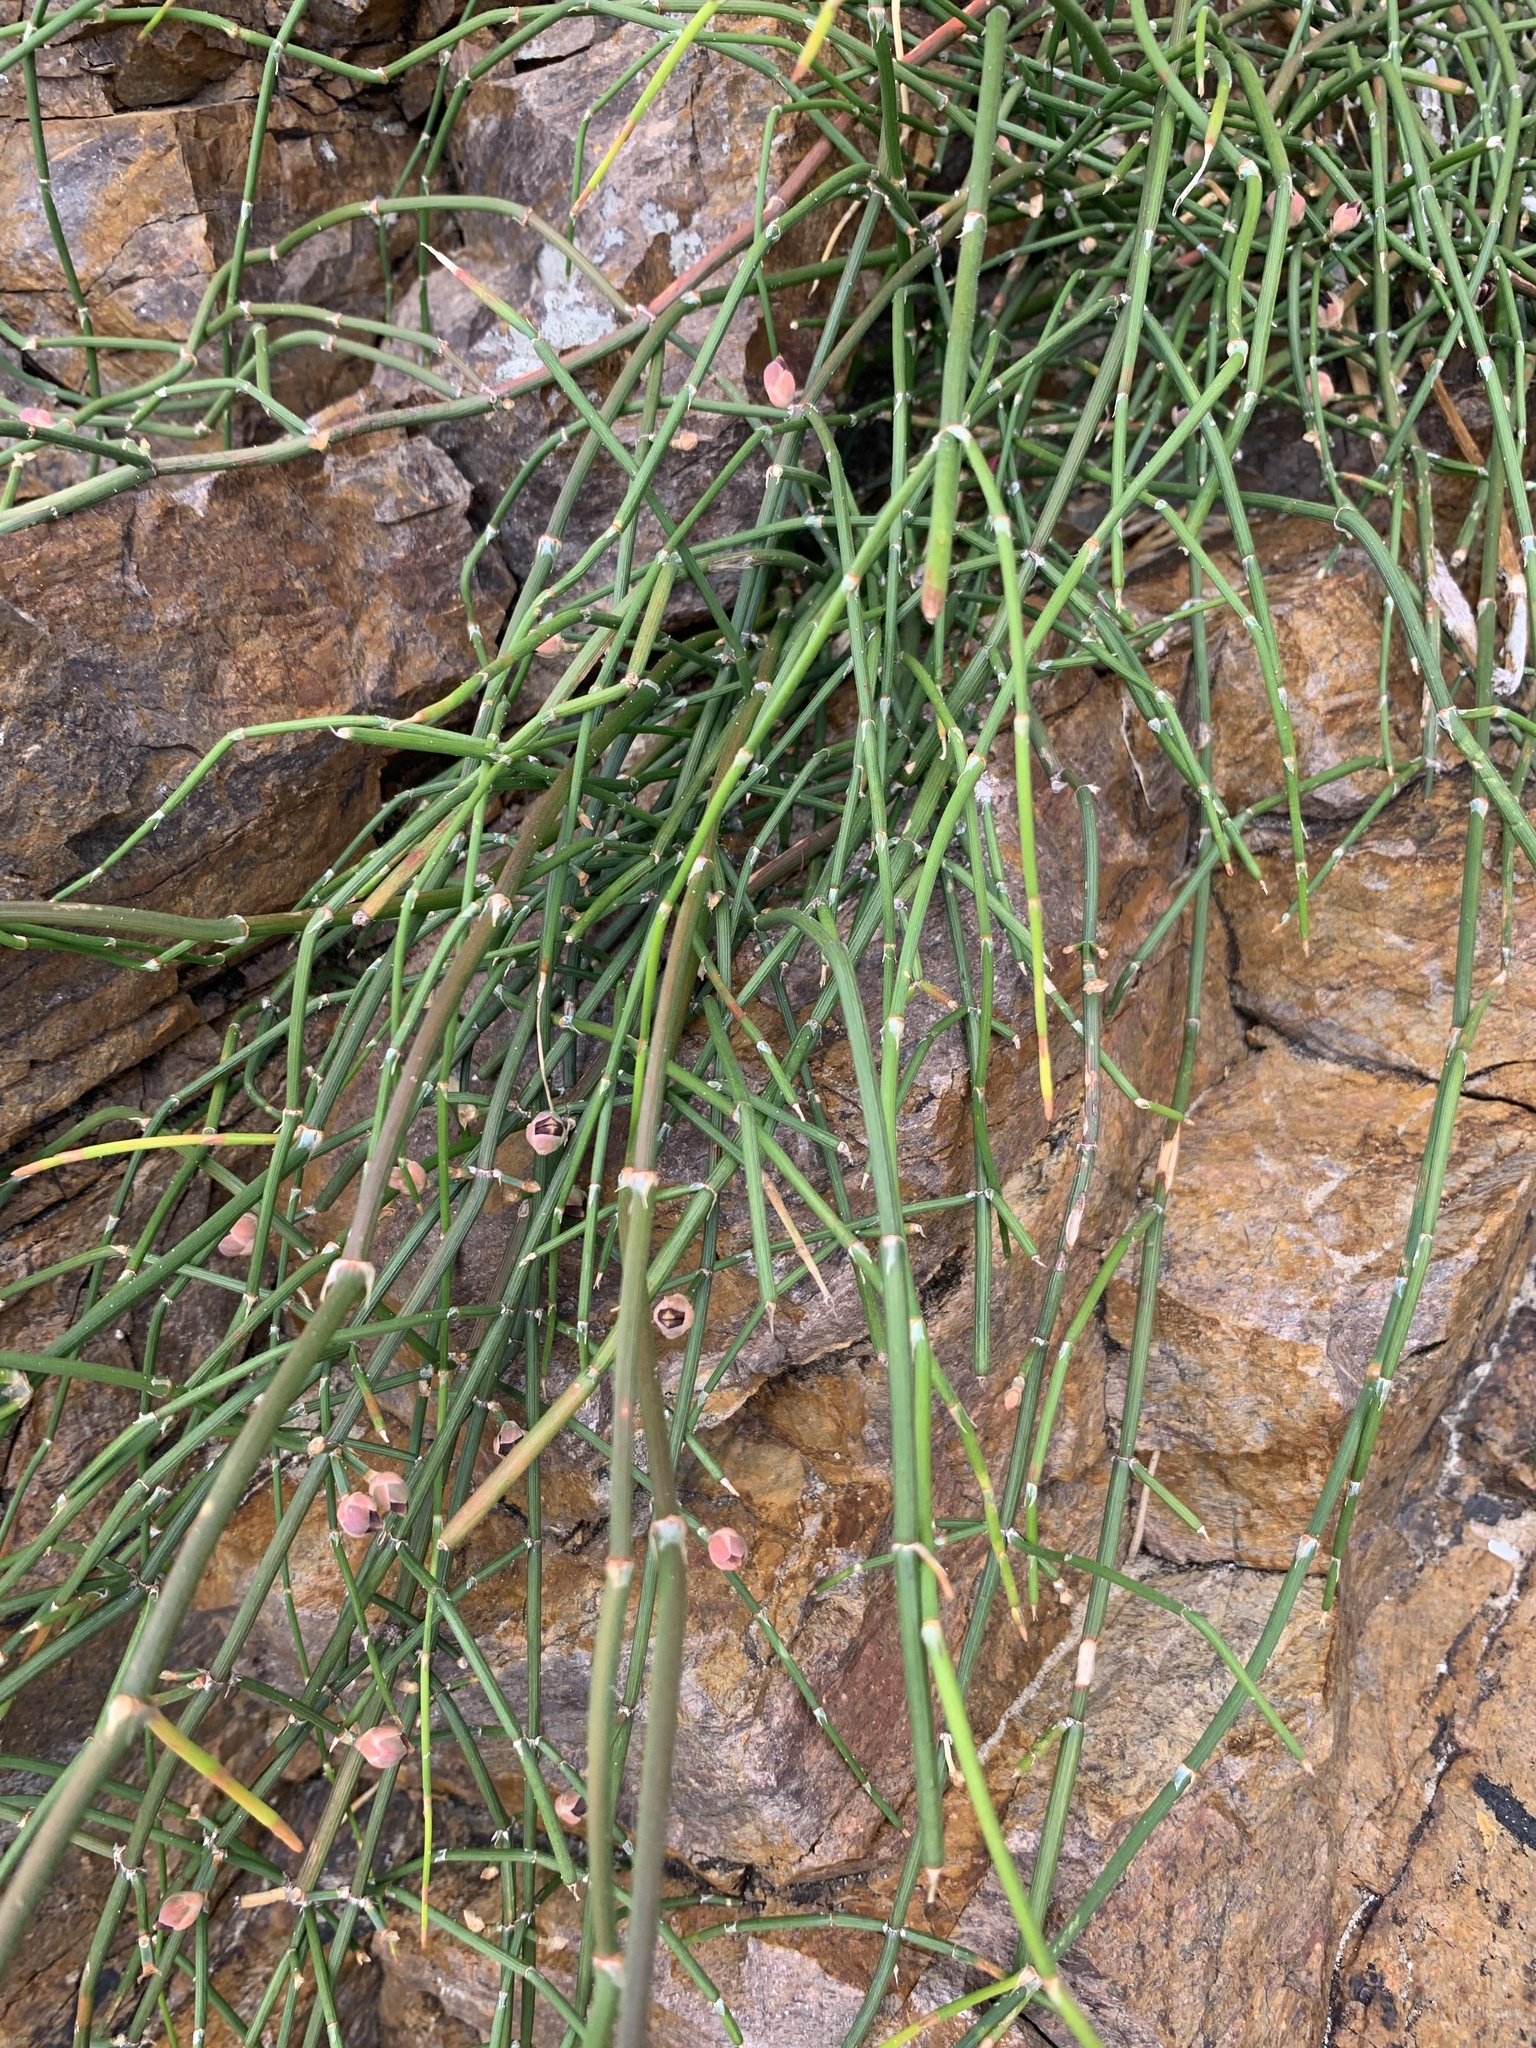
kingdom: Plantae
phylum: Tracheophyta
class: Gnetopsida
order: Ephedrales
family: Ephedraceae
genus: Ephedra
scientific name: Ephedra tweedieana
